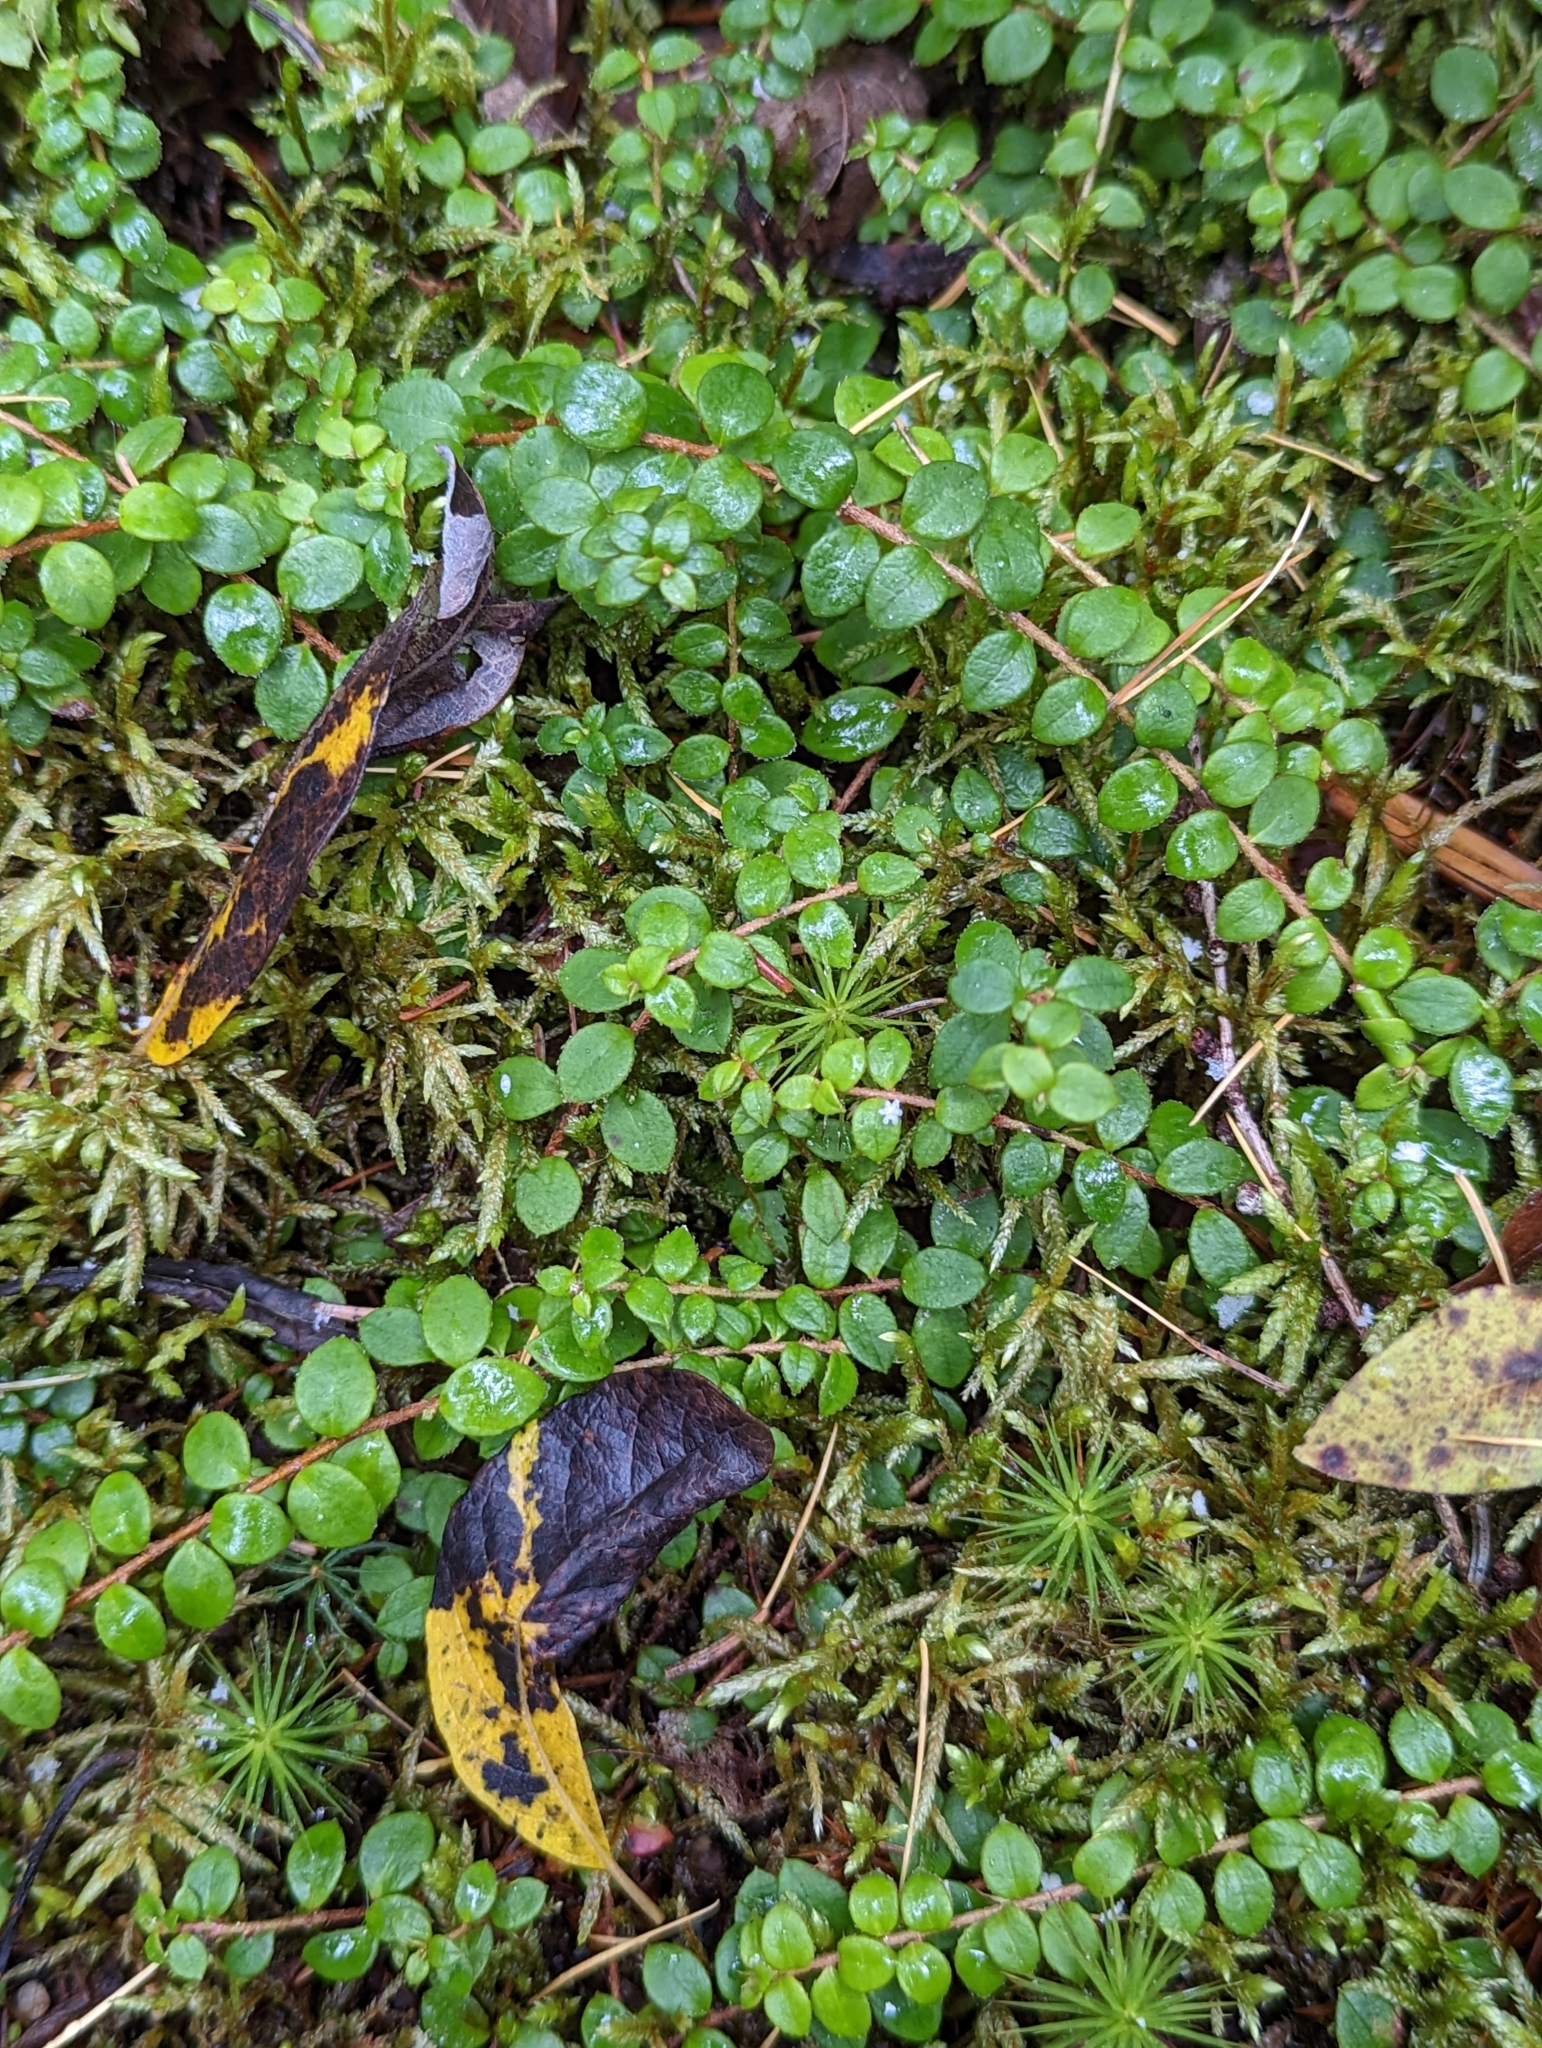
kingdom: Plantae
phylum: Tracheophyta
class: Magnoliopsida
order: Ericales
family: Ericaceae
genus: Gaultheria
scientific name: Gaultheria hispidula
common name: Cancer wintergreen
